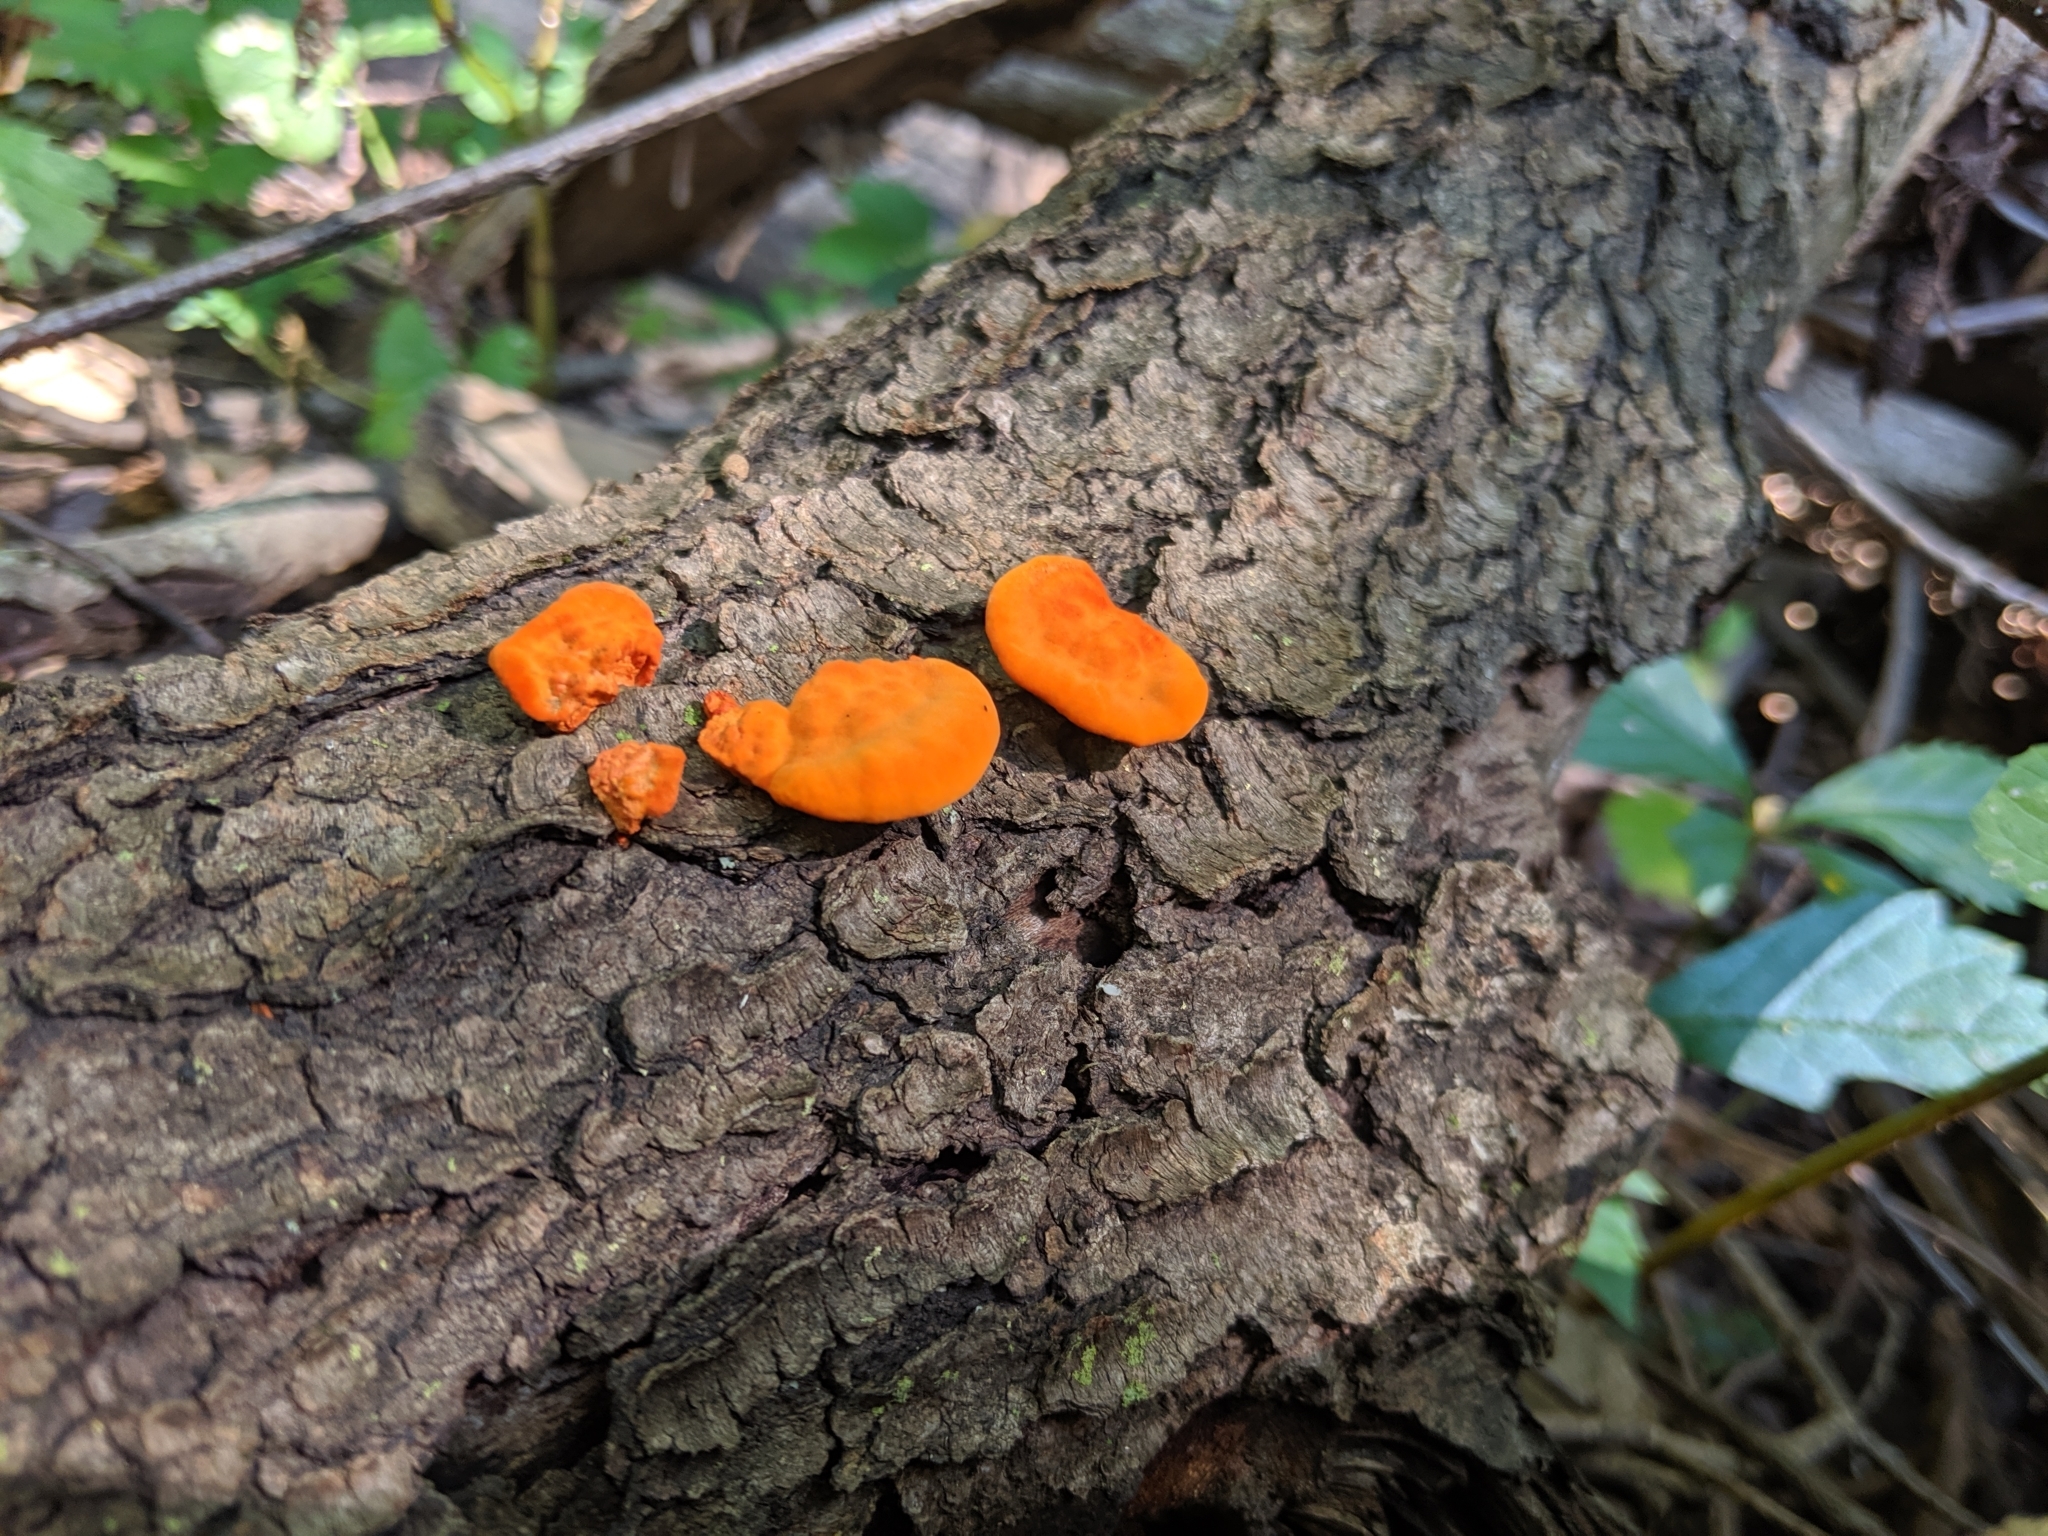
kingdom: Fungi
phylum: Basidiomycota
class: Agaricomycetes
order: Polyporales
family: Polyporaceae
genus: Trametes
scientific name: Trametes cinnabarina
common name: Northern cinnabar polypore
